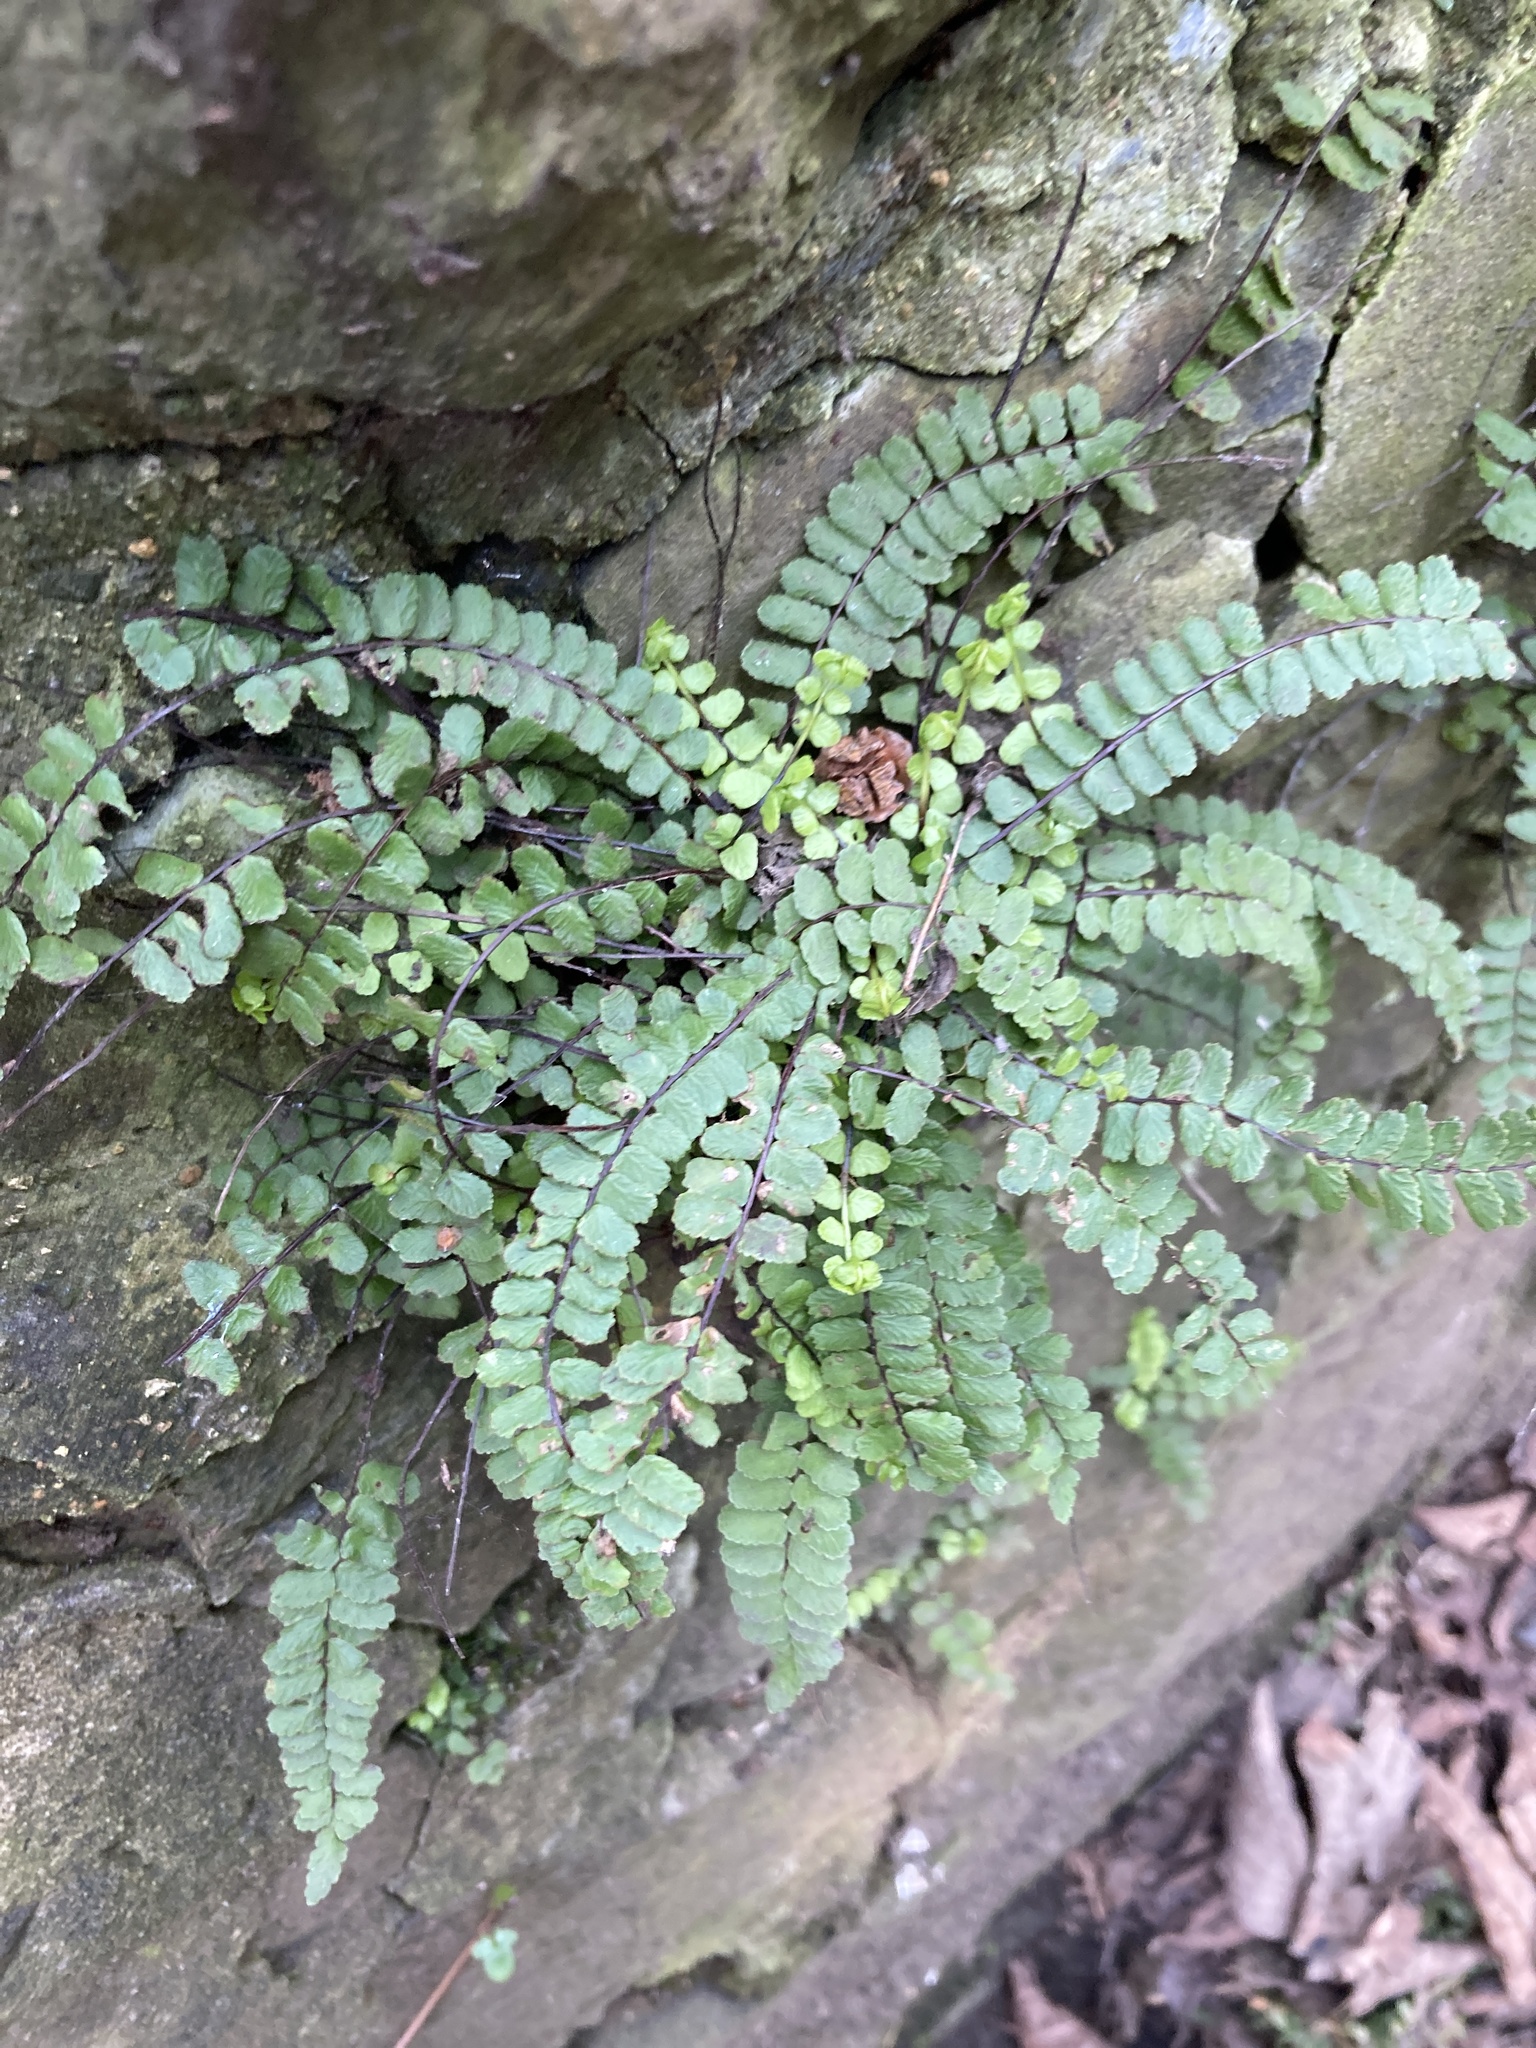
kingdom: Plantae
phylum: Tracheophyta
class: Polypodiopsida
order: Polypodiales
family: Aspleniaceae
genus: Asplenium
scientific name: Asplenium trichomanes
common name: Maidenhair spleenwort
